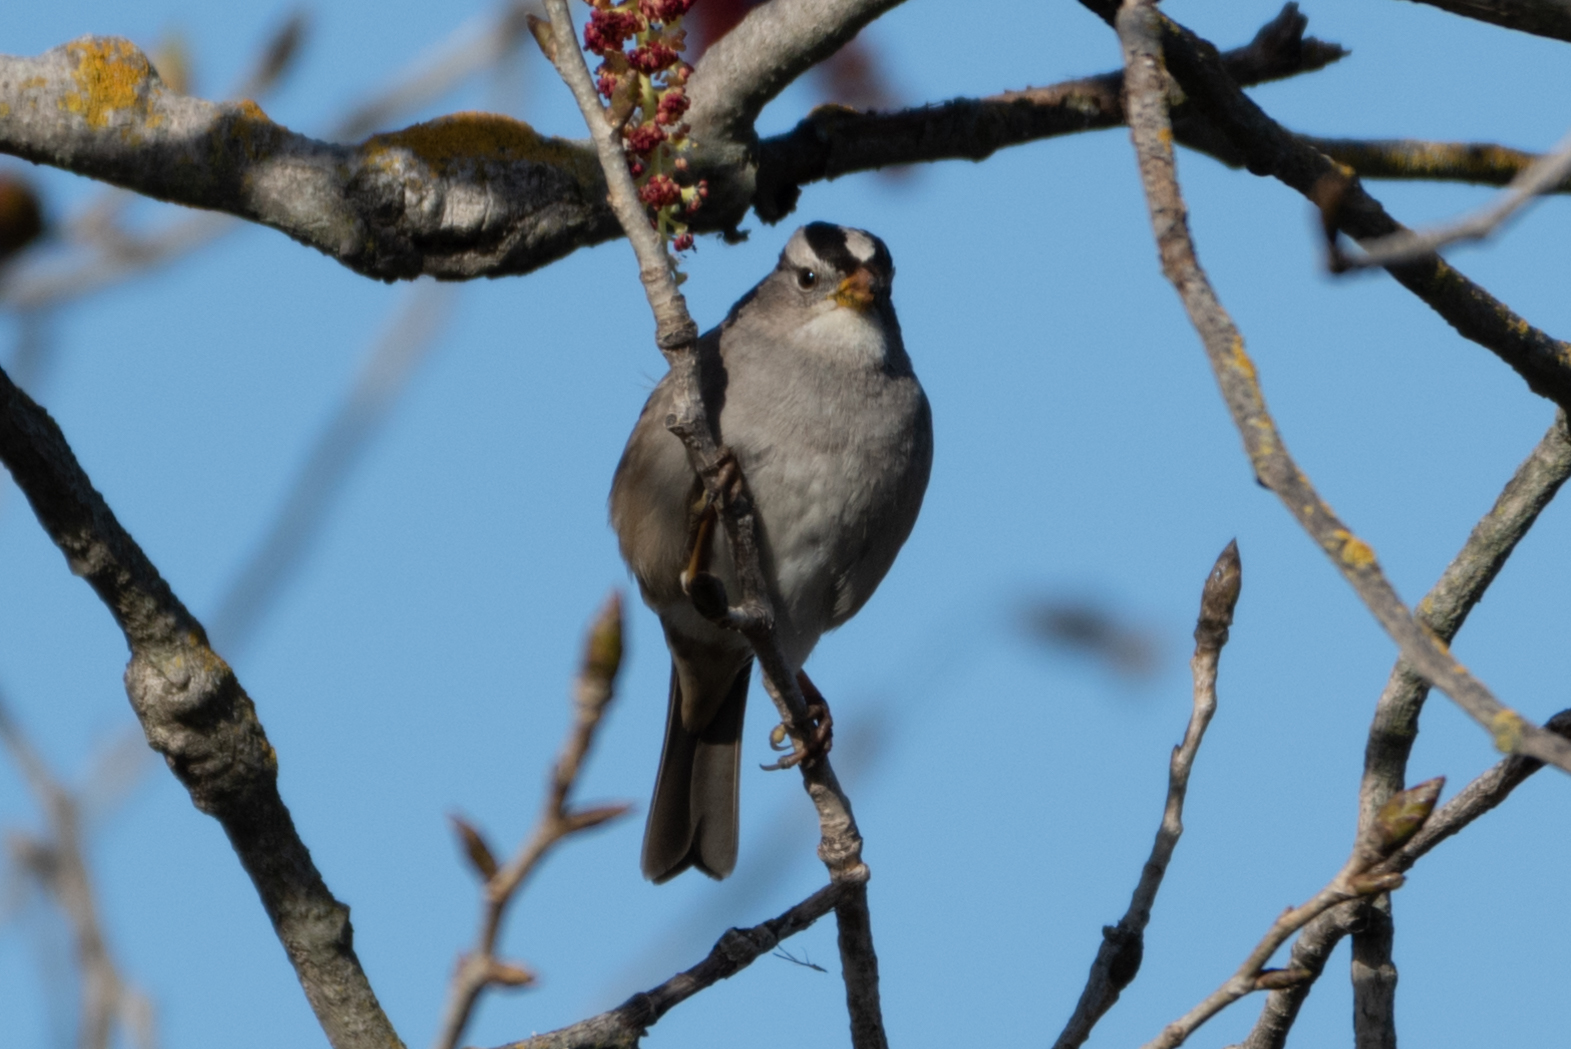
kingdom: Animalia
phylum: Chordata
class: Aves
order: Passeriformes
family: Passerellidae
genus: Zonotrichia
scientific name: Zonotrichia leucophrys
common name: White-crowned sparrow
